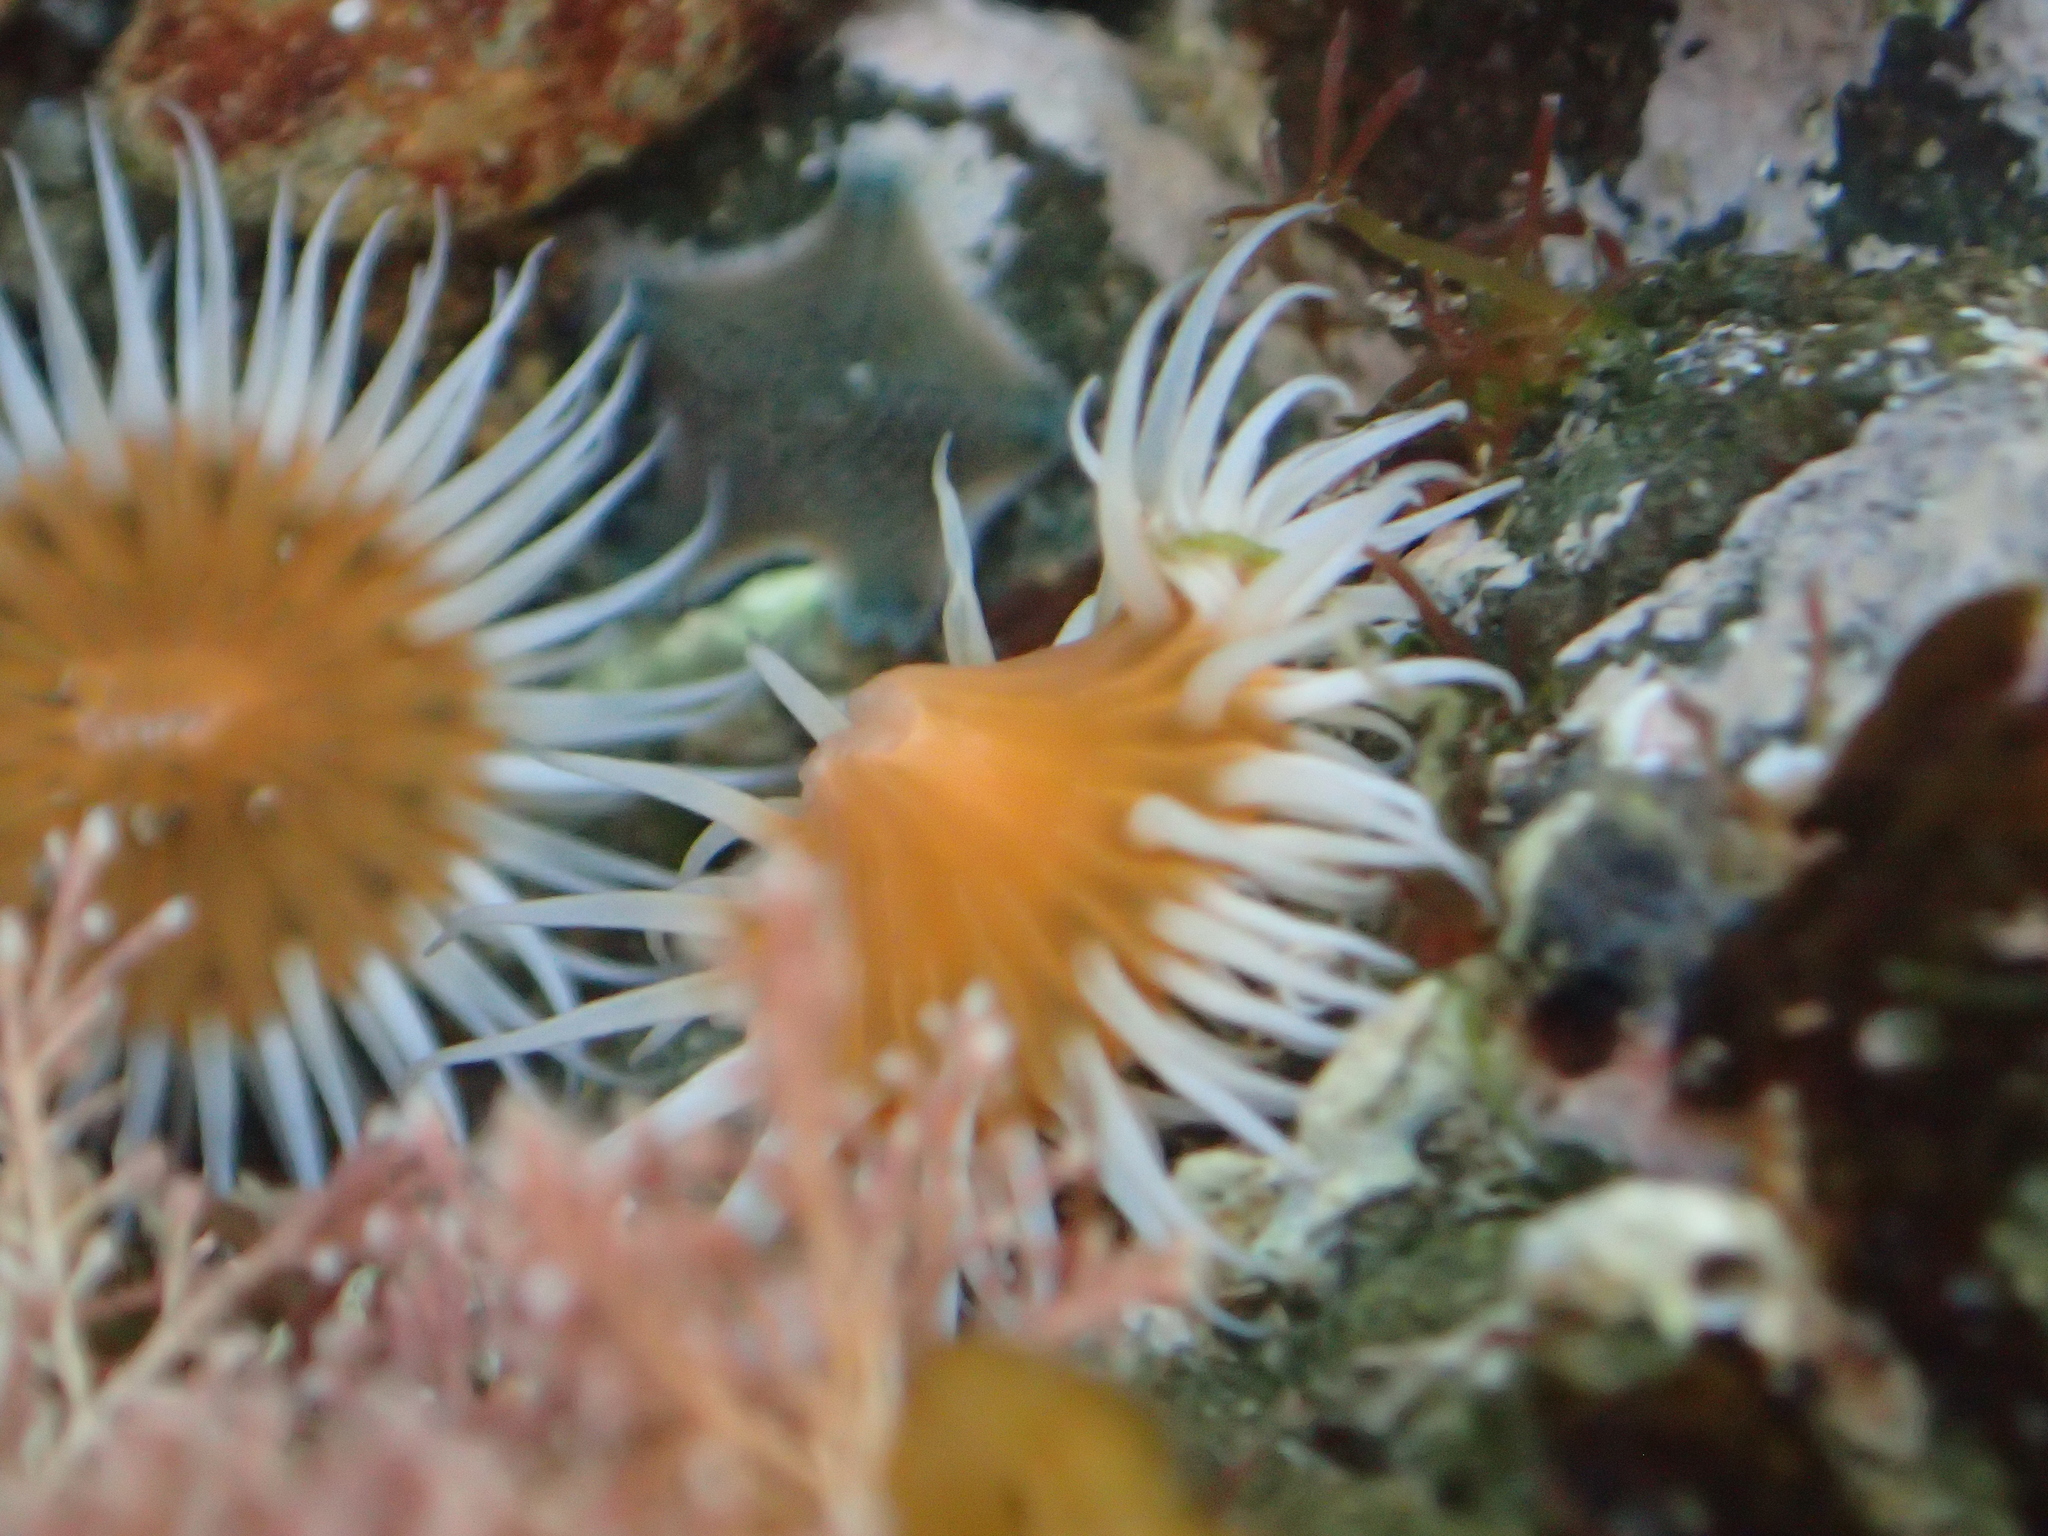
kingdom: Animalia
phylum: Cnidaria
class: Anthozoa
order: Actiniaria
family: Sagartiidae
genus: Anthothoe
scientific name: Anthothoe albocincta
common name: Orange striped anemone
